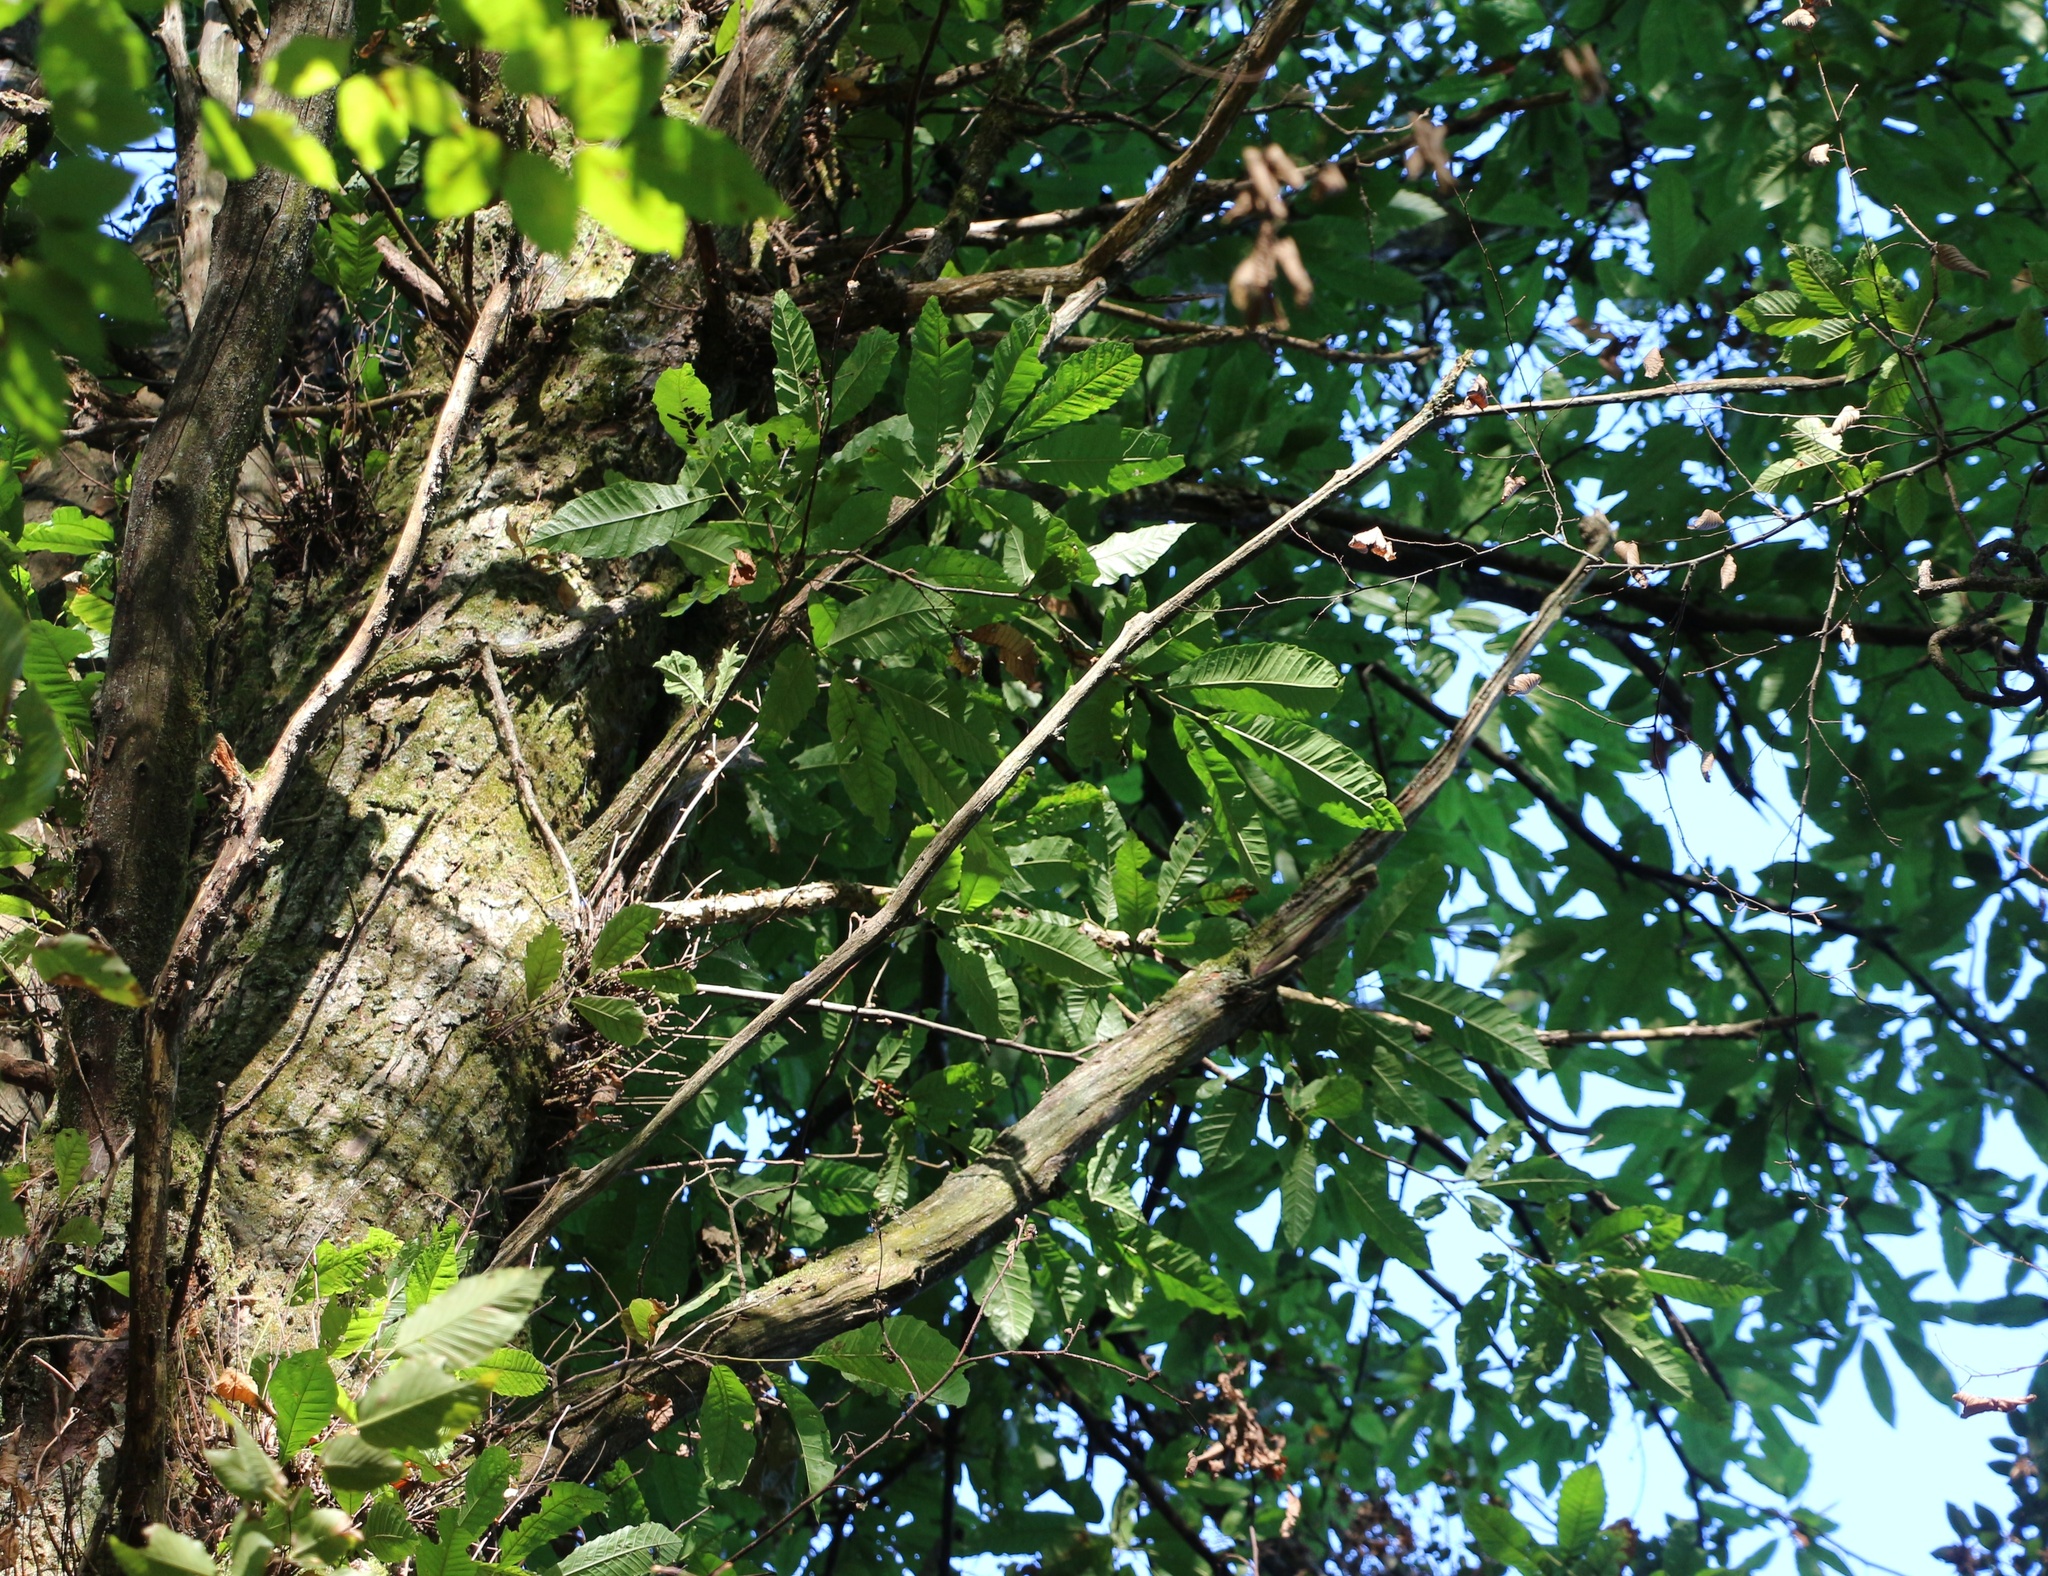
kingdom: Plantae
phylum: Tracheophyta
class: Magnoliopsida
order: Fagales
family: Fagaceae
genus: Castanea
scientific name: Castanea sativa
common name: Sweet chestnut
